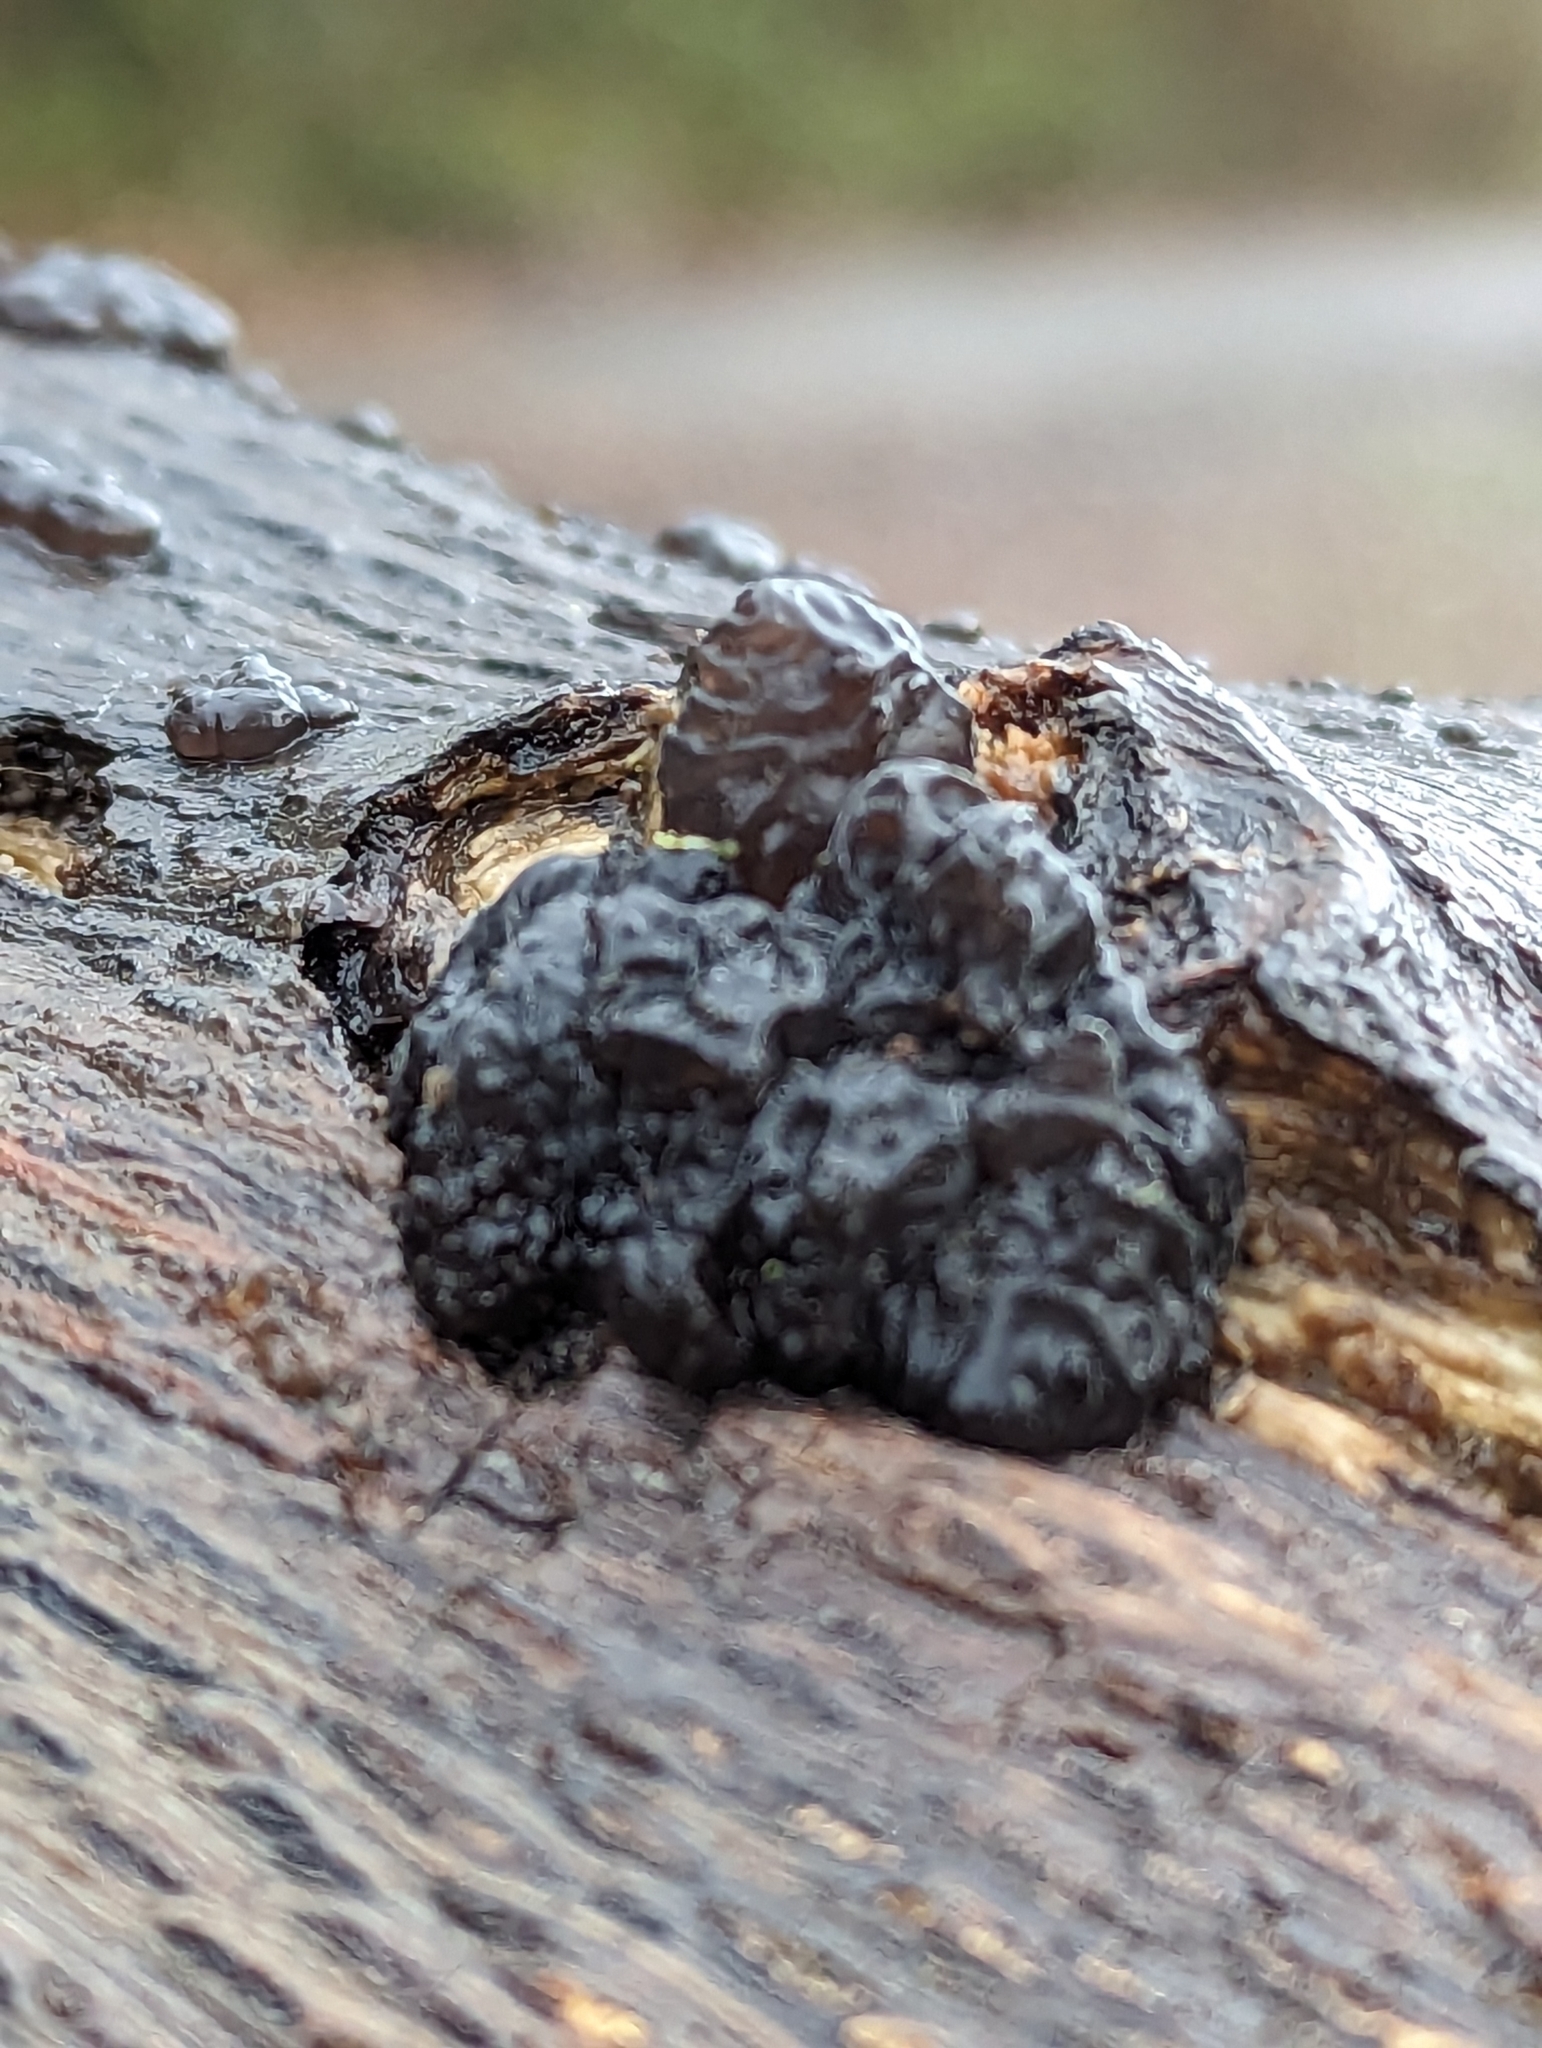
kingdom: Fungi
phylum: Basidiomycota
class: Agaricomycetes
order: Auriculariales
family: Auriculariaceae
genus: Exidia
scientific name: Exidia glandulosa
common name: Witches' butter
